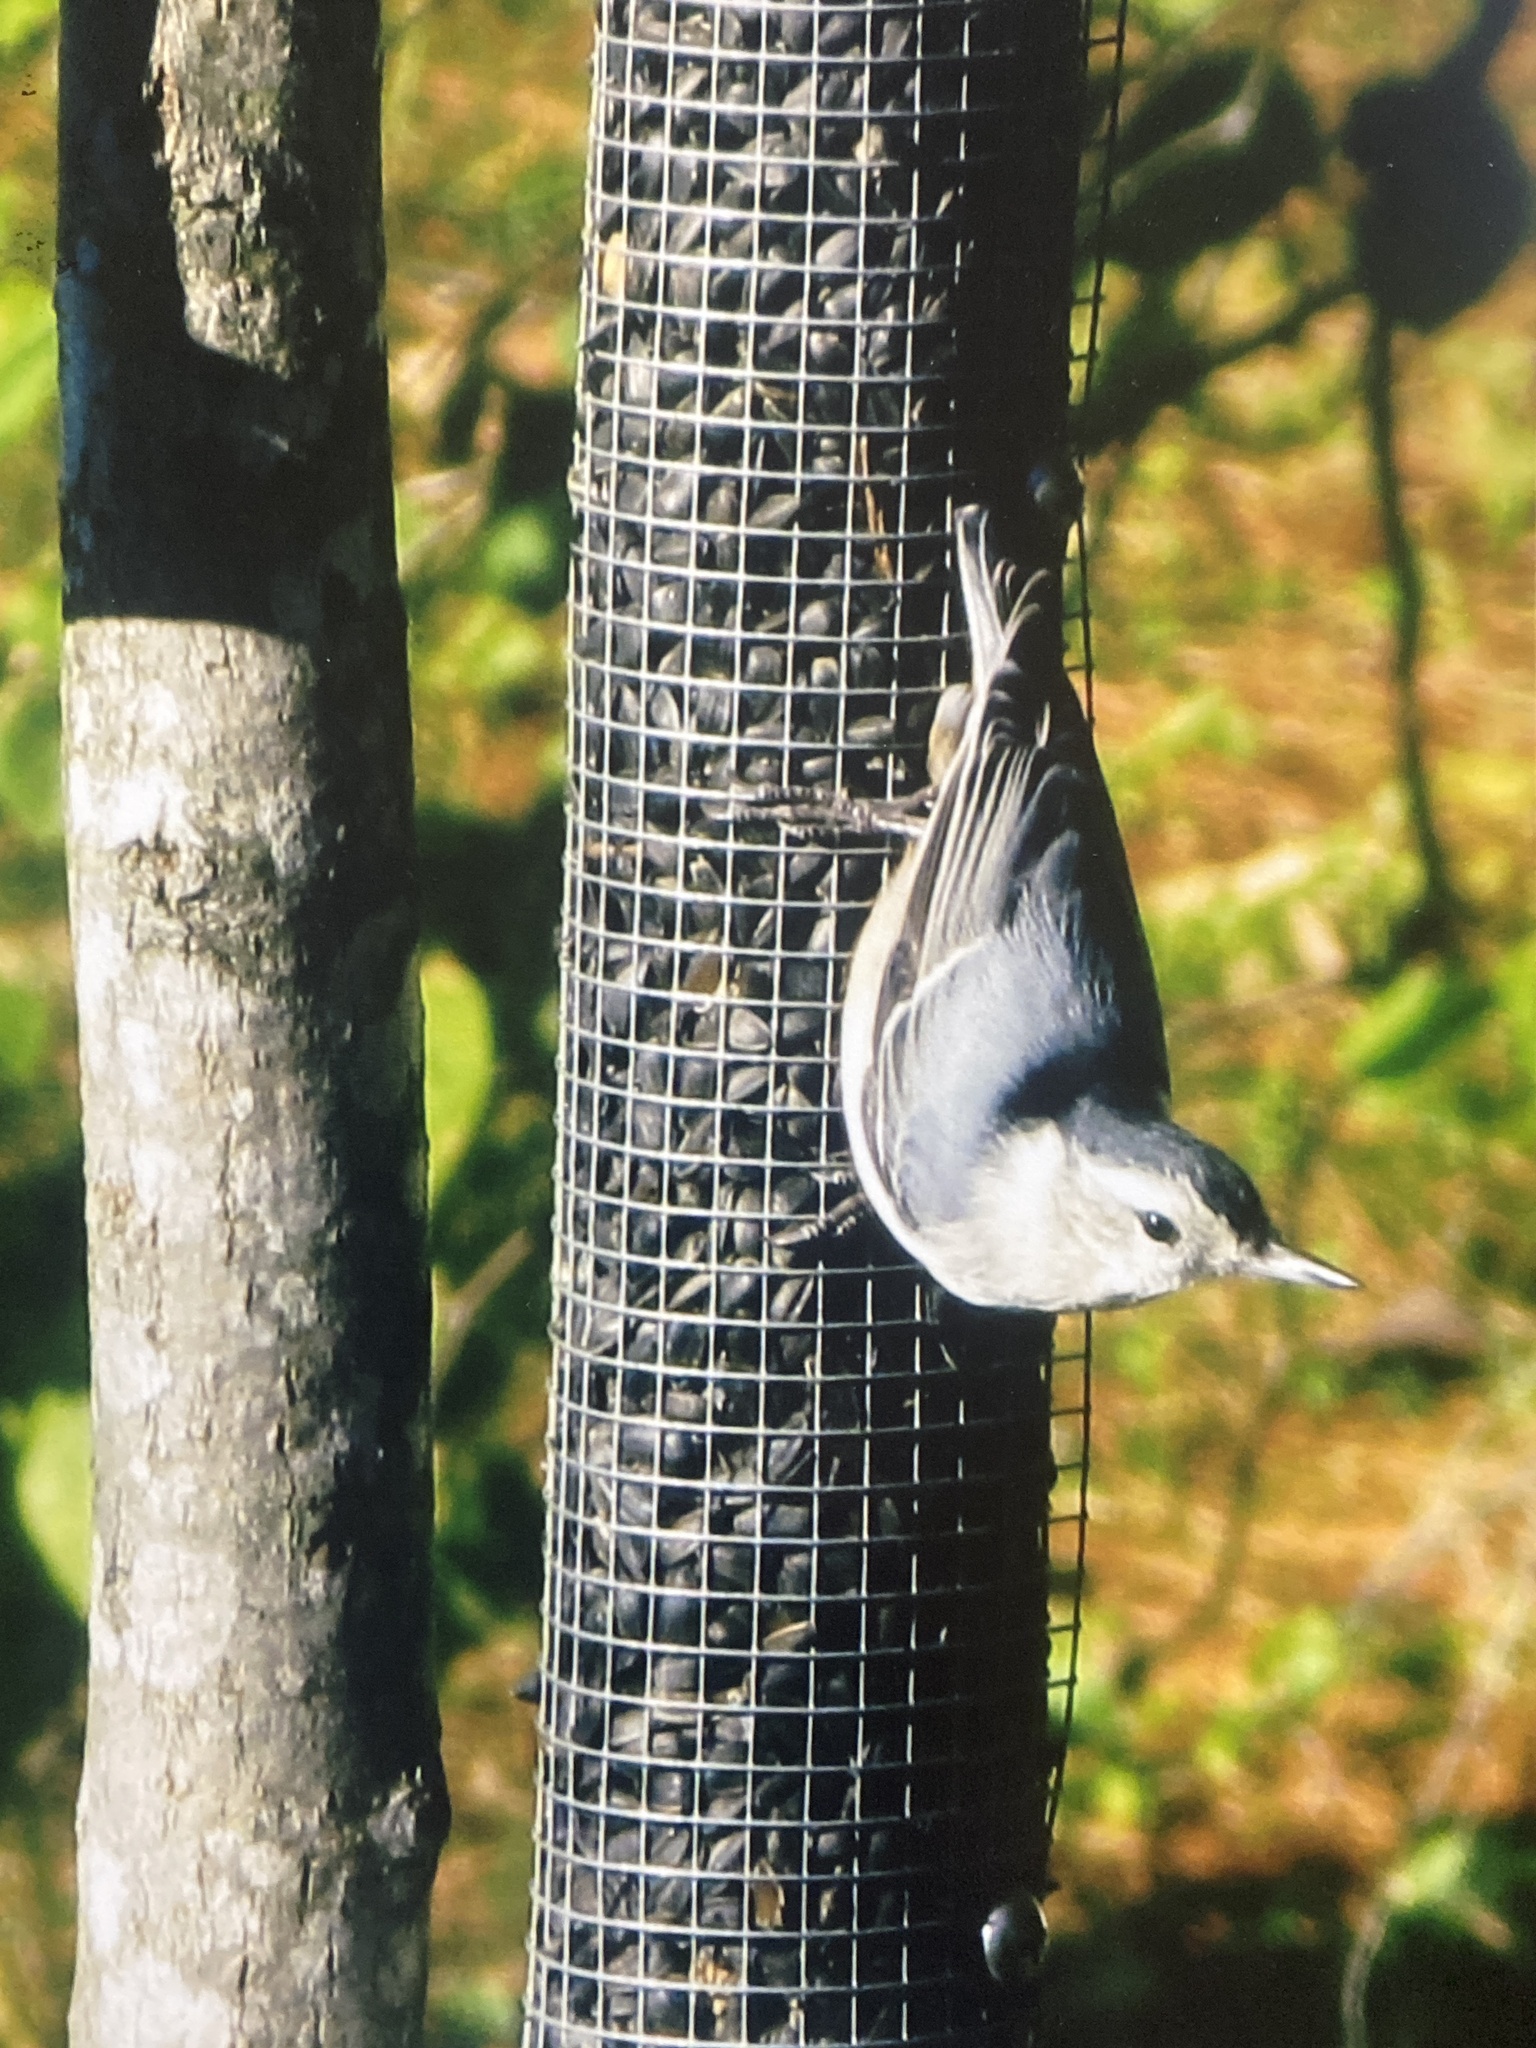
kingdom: Animalia
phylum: Chordata
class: Aves
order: Passeriformes
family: Sittidae
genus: Sitta
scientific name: Sitta carolinensis
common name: White-breasted nuthatch
